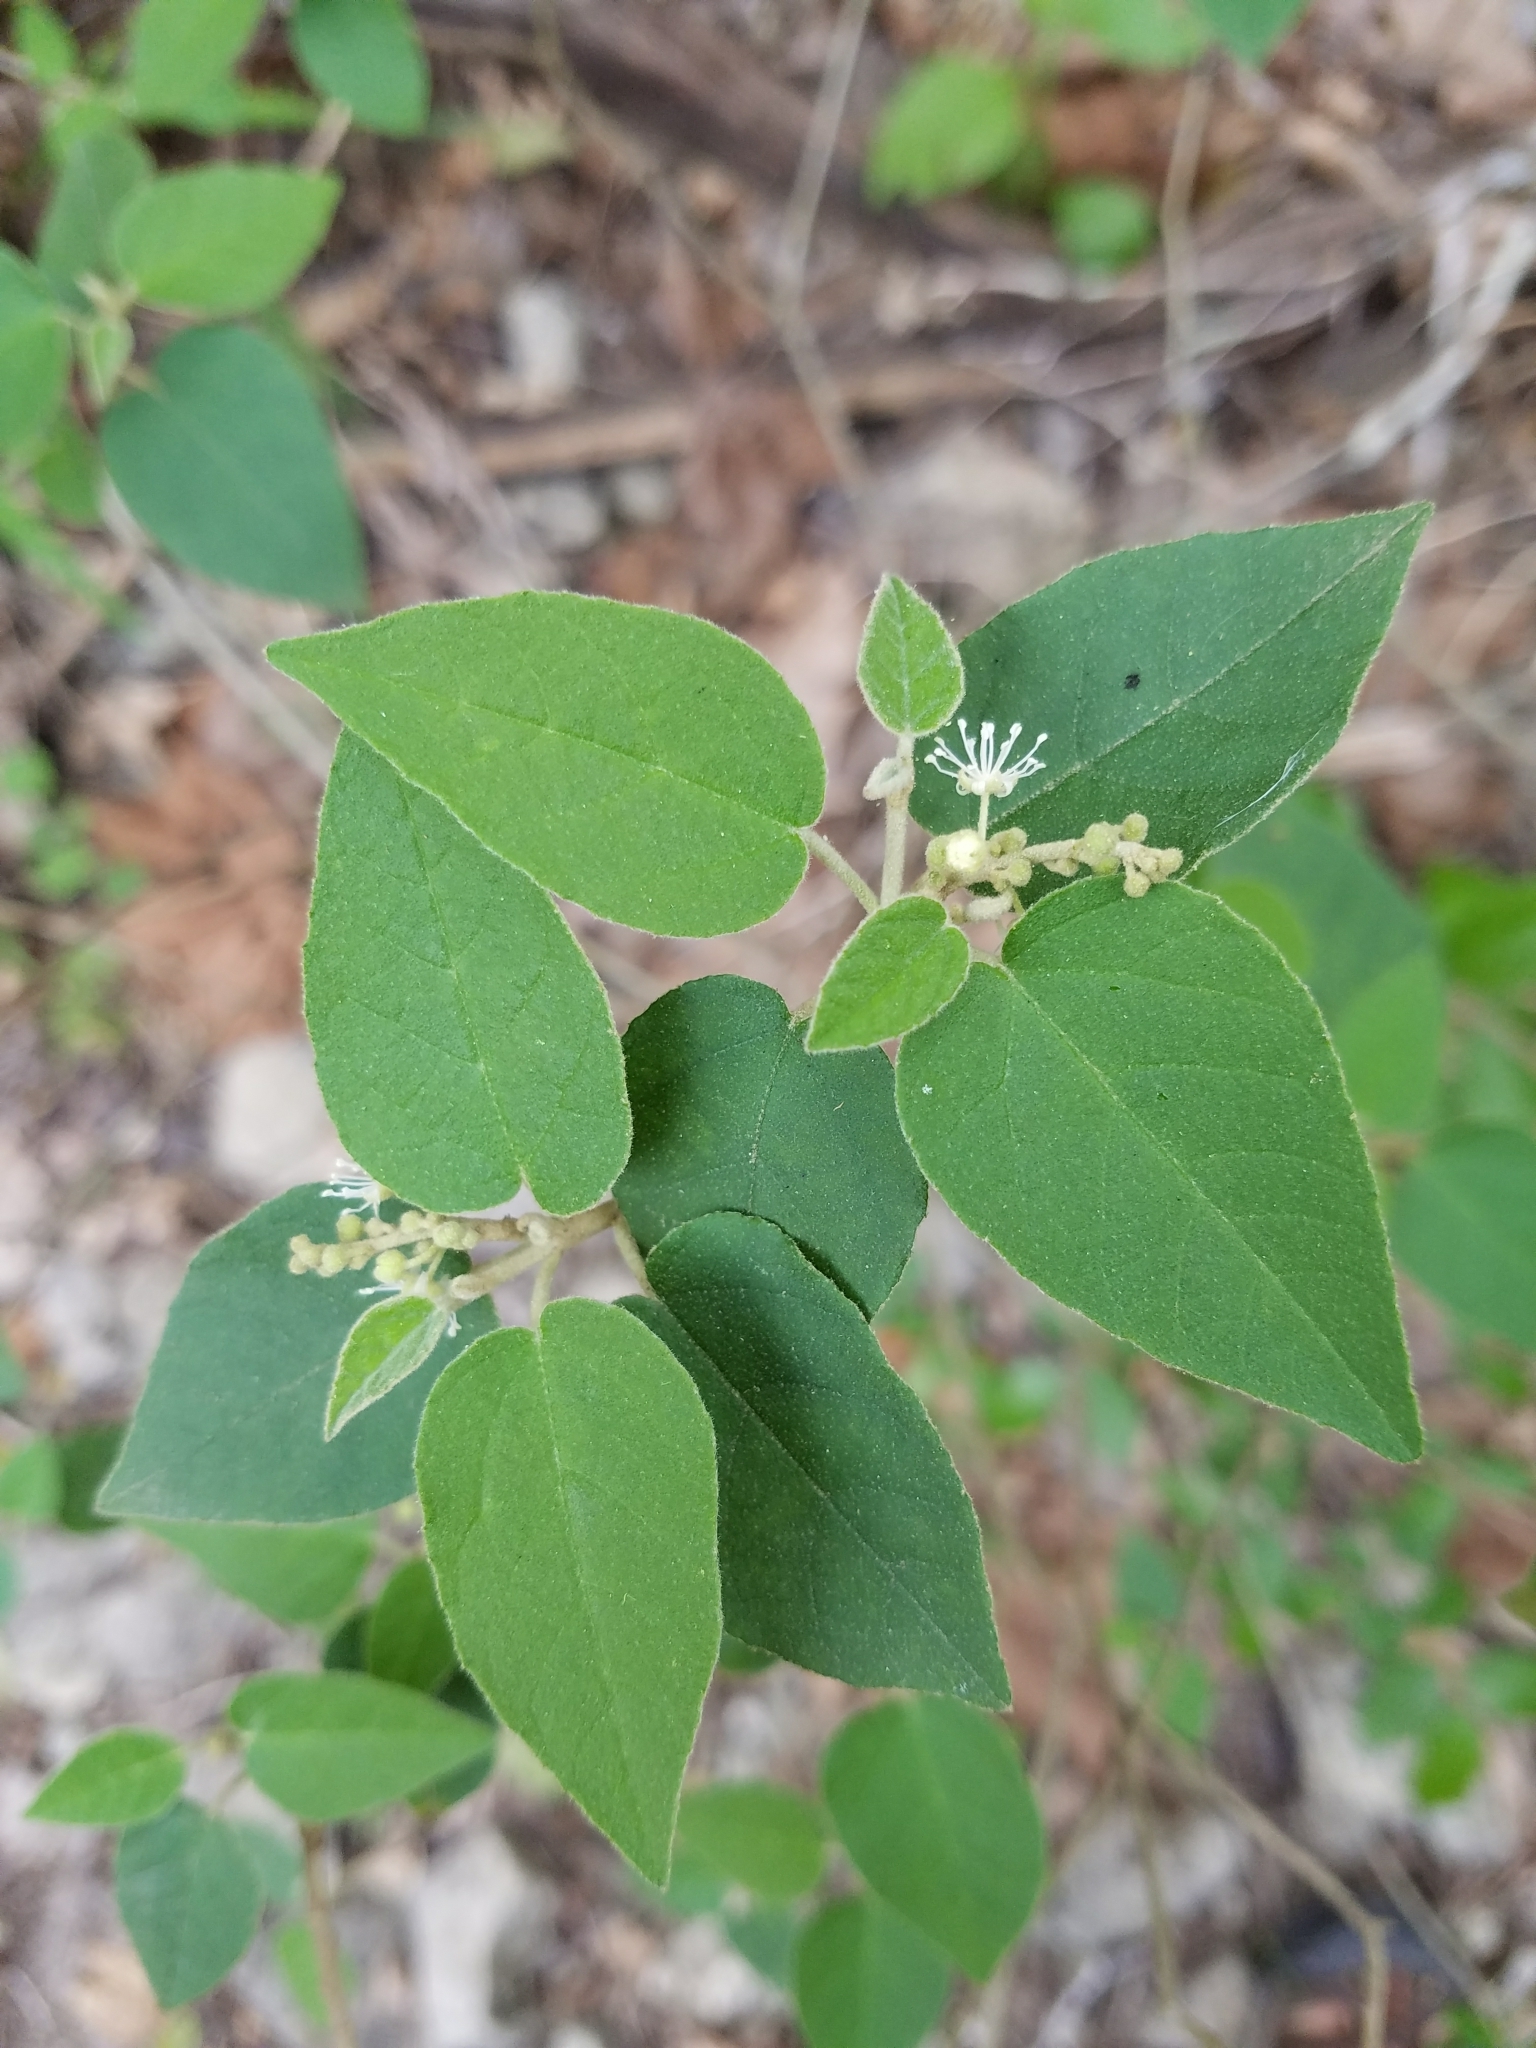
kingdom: Plantae
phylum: Tracheophyta
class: Magnoliopsida
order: Malpighiales
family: Euphorbiaceae
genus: Croton
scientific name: Croton fruticulosus
